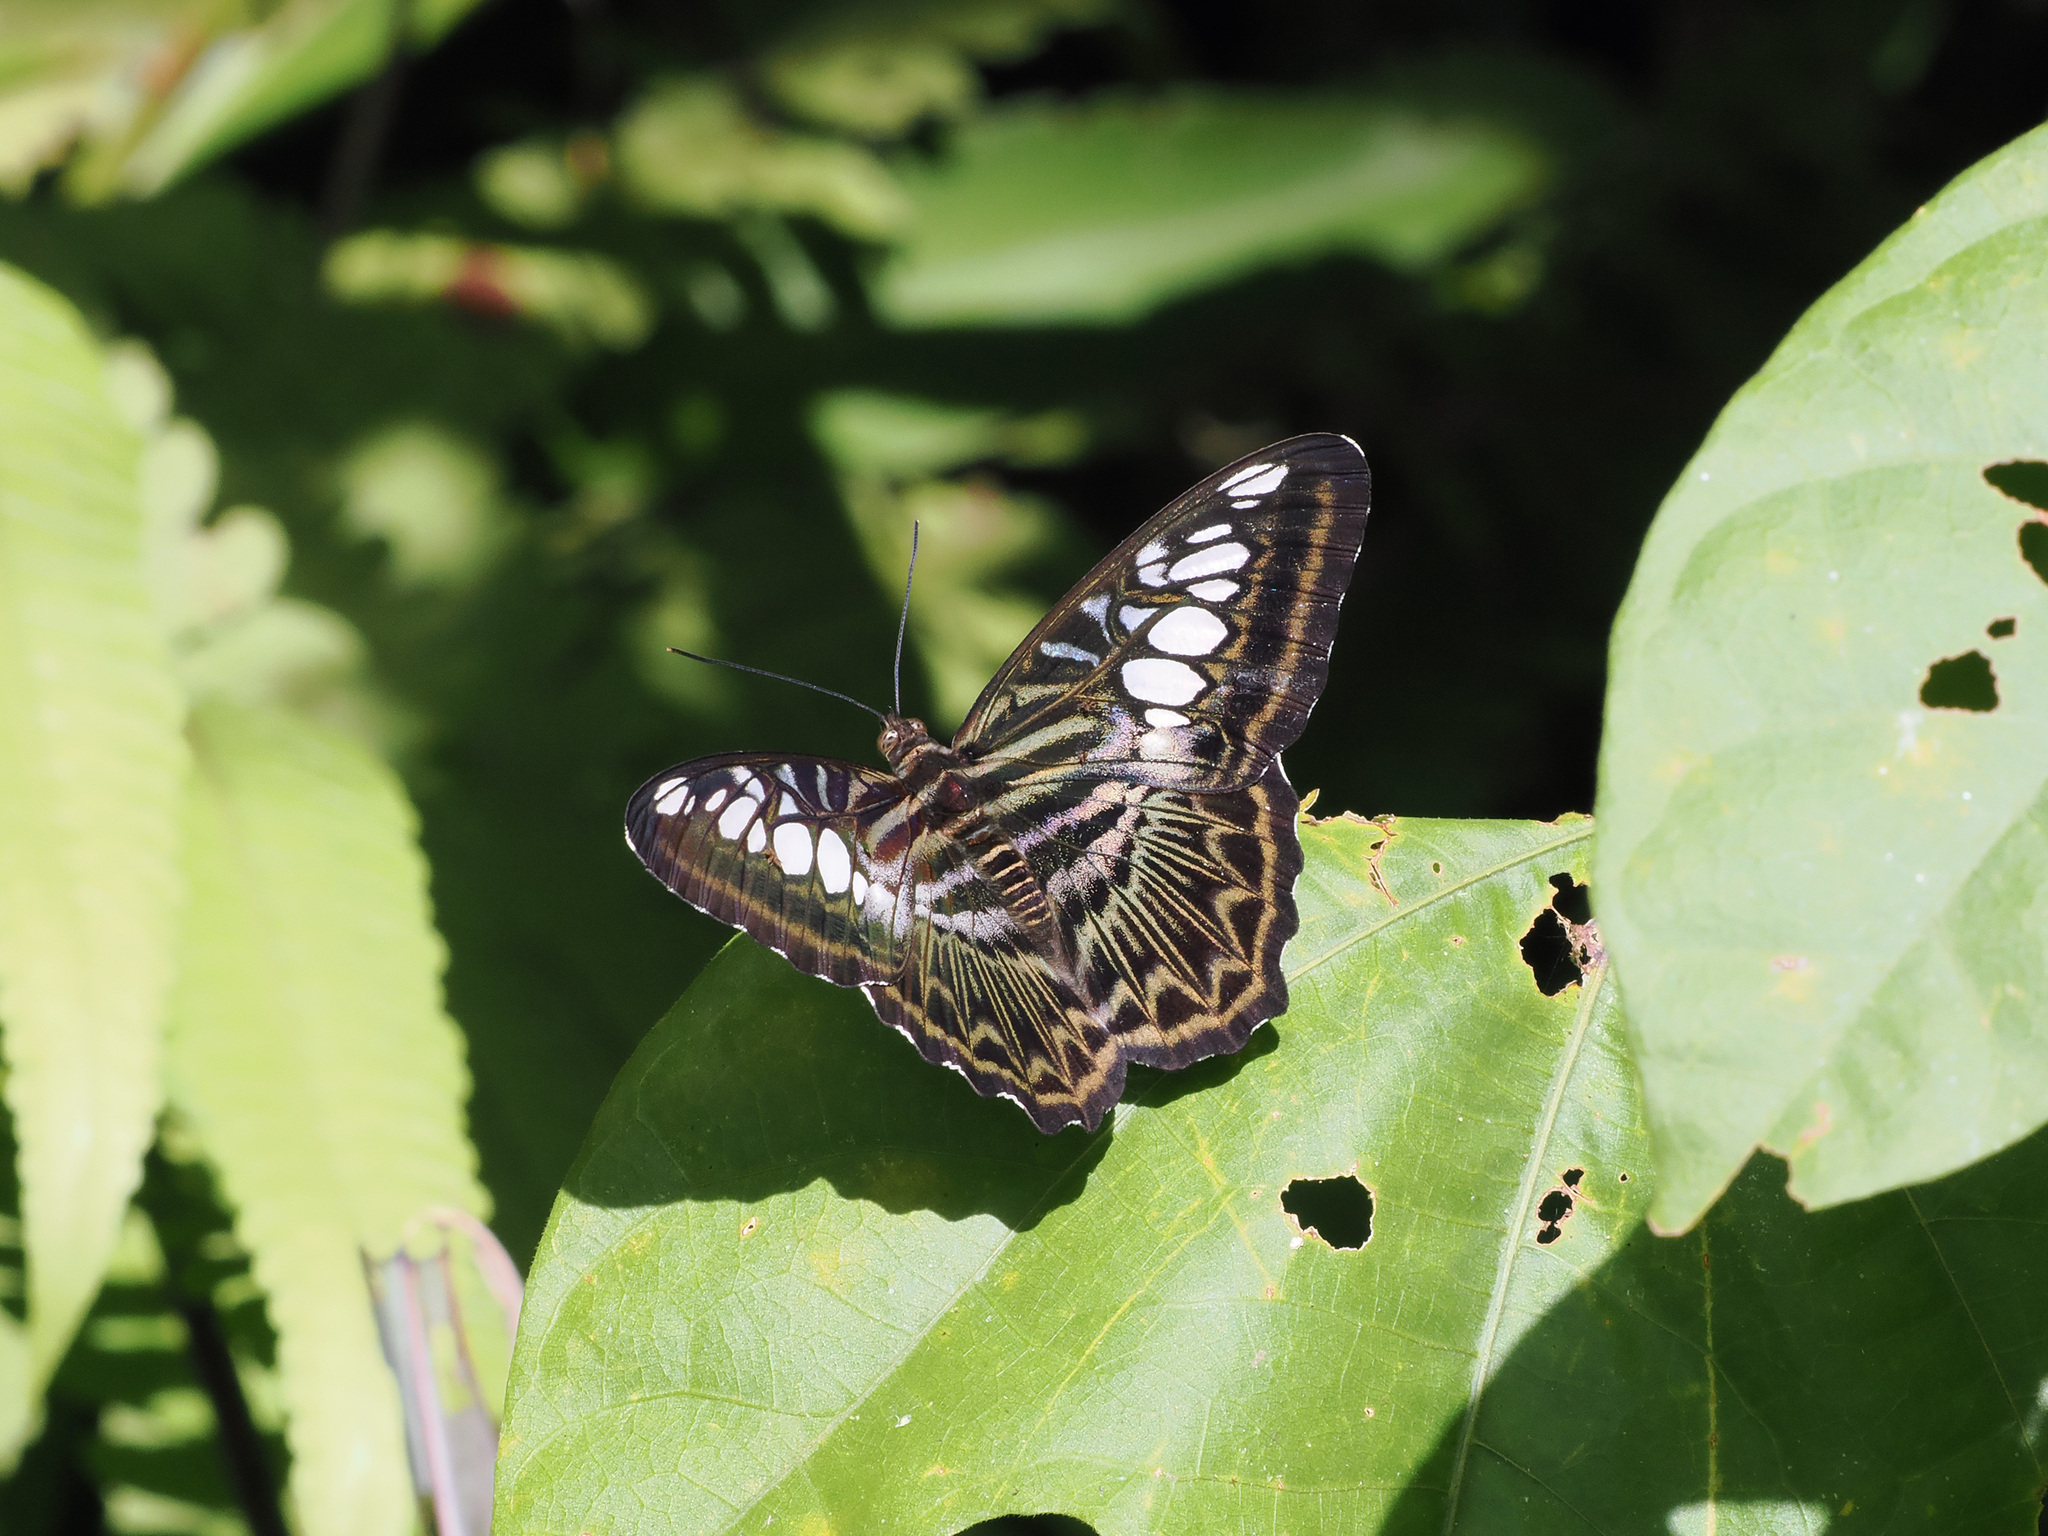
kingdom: Animalia
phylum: Arthropoda
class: Insecta
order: Lepidoptera
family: Nymphalidae
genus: Kallima
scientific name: Kallima sylvia
